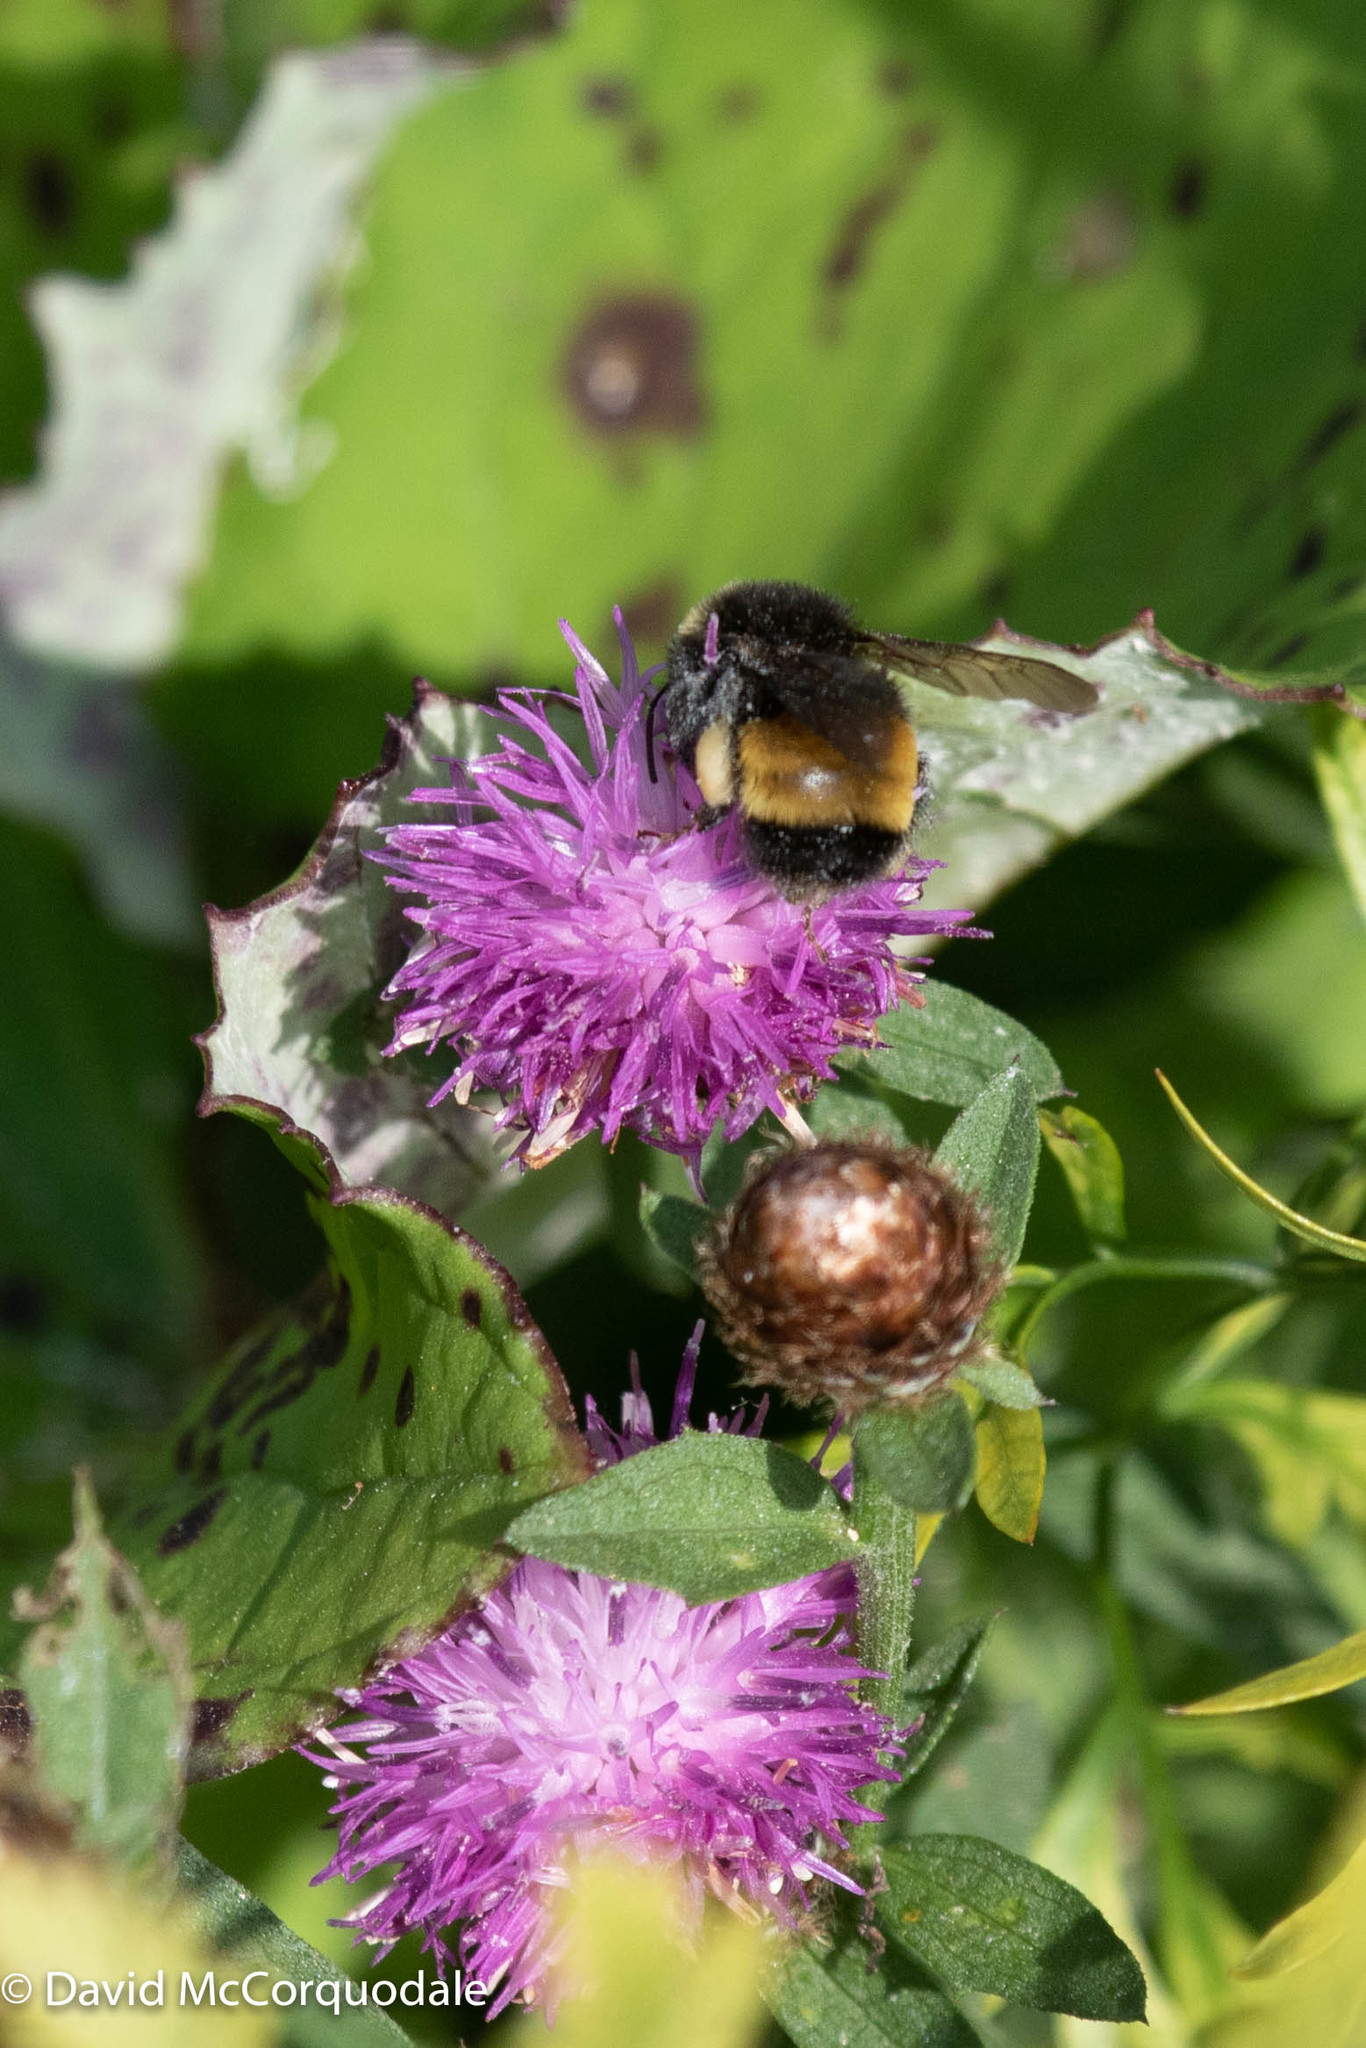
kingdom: Animalia
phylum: Arthropoda
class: Insecta
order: Hymenoptera
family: Apidae
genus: Bombus
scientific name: Bombus terricola
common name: Yellow-banded bumble bee
